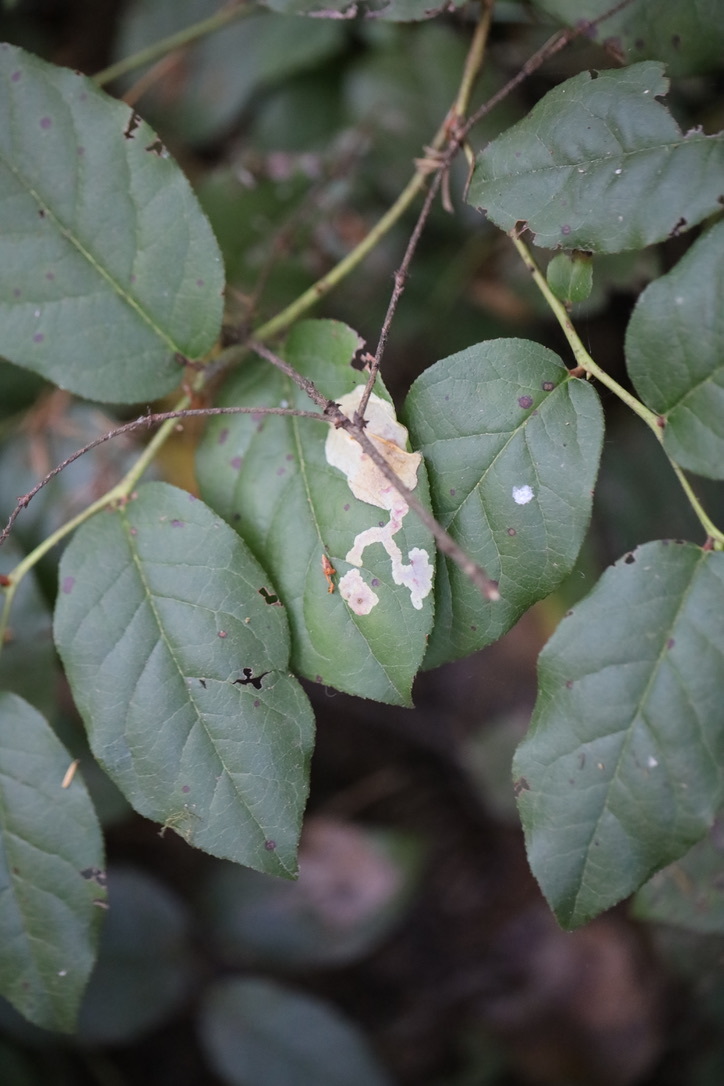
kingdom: Animalia
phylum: Arthropoda
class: Insecta
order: Lepidoptera
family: Gracillariidae
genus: Cameraria
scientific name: Cameraria gaultheriella
